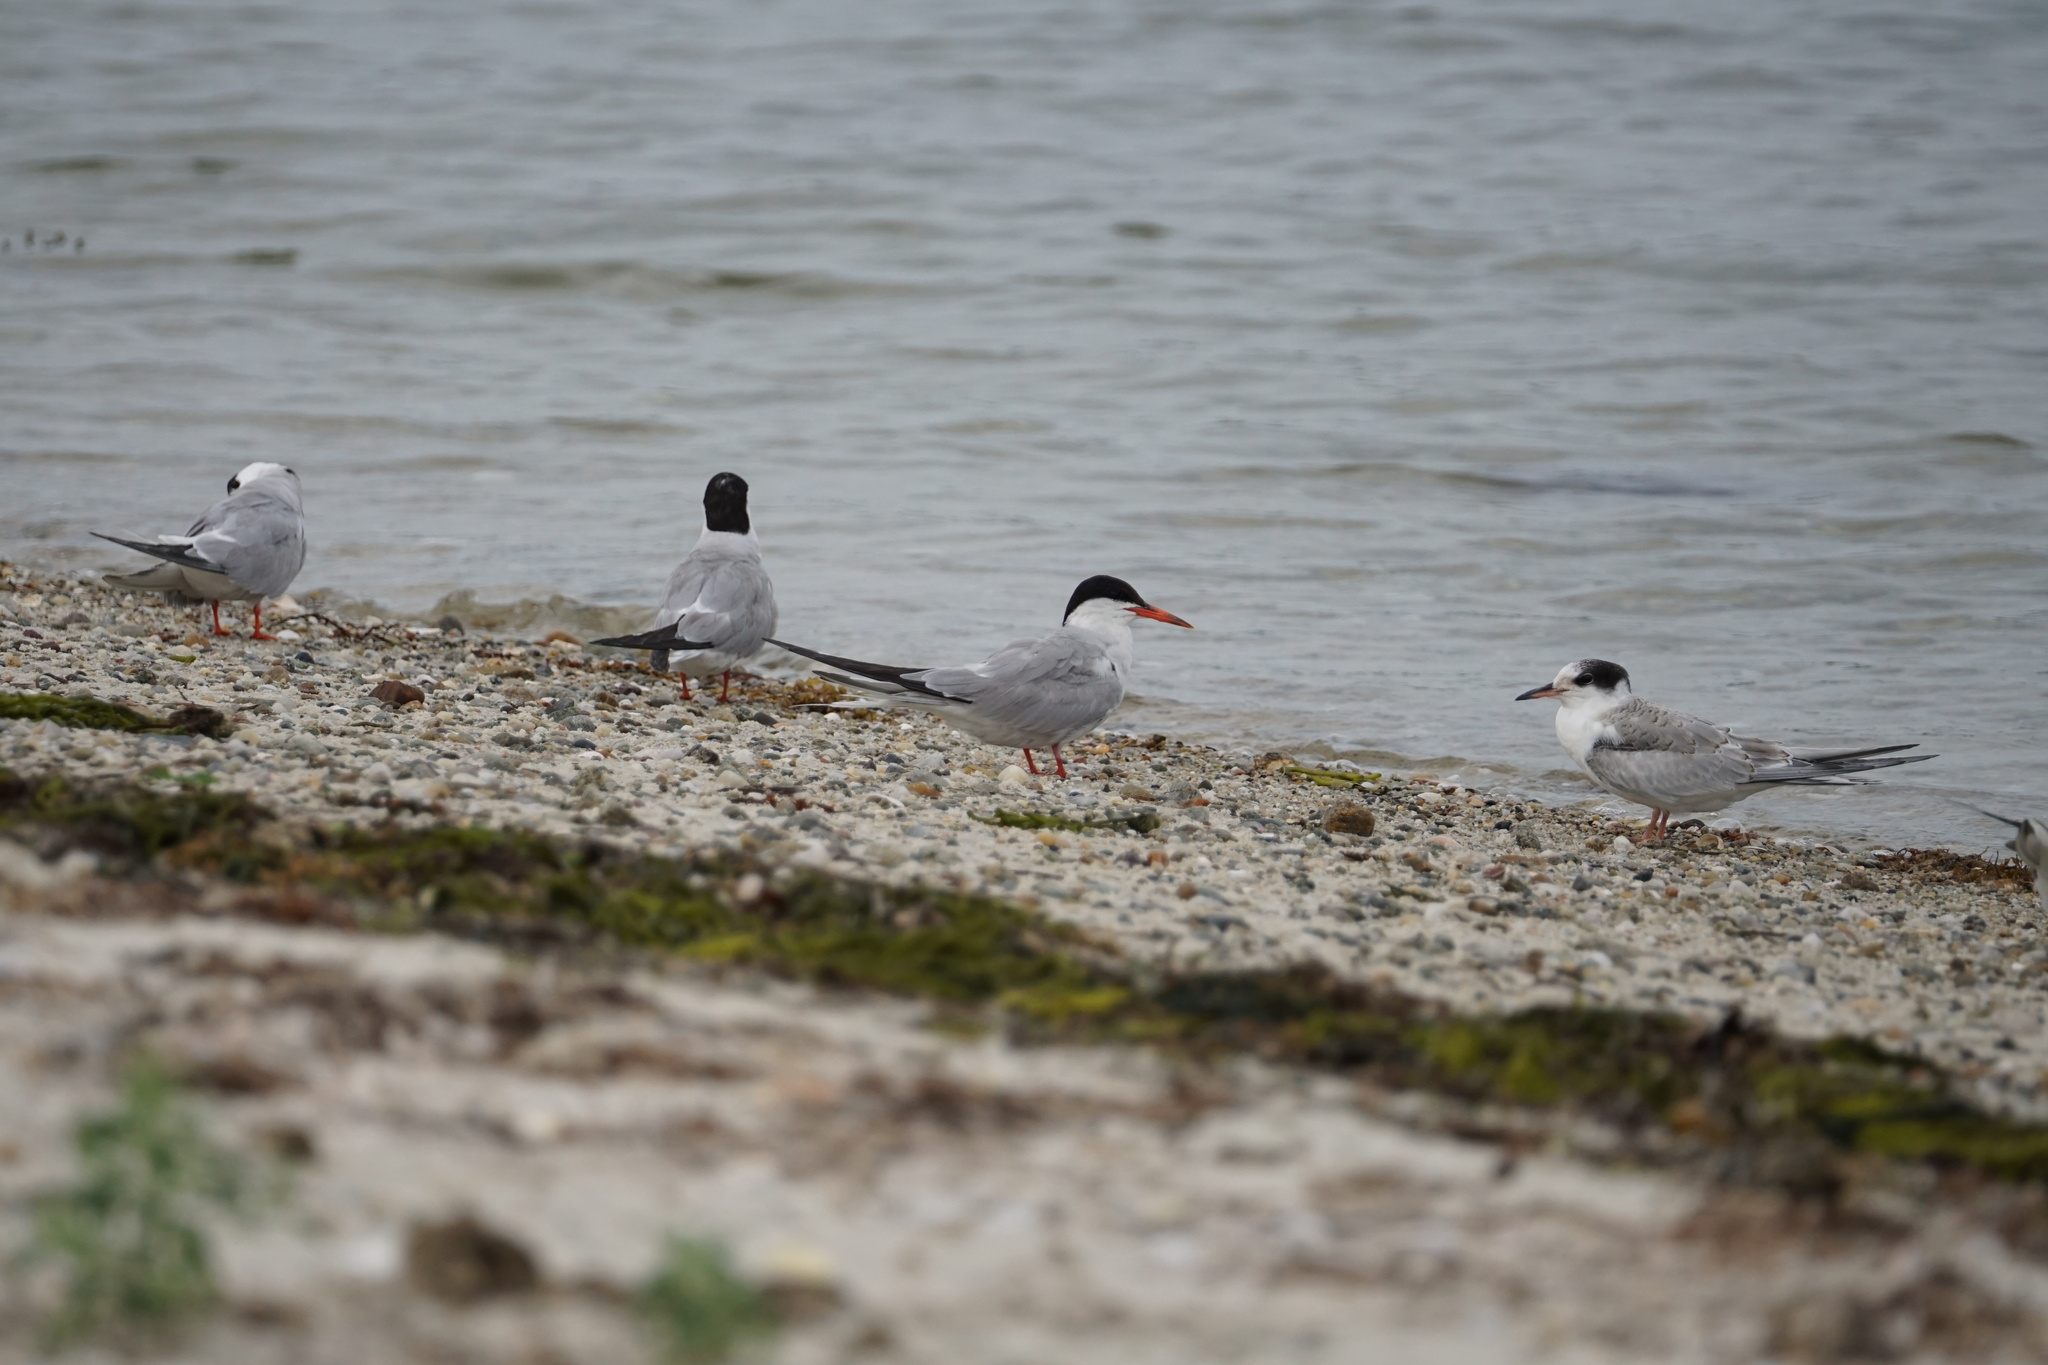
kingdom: Animalia
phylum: Chordata
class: Aves
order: Charadriiformes
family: Laridae
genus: Sterna
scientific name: Sterna hirundo
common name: Common tern
